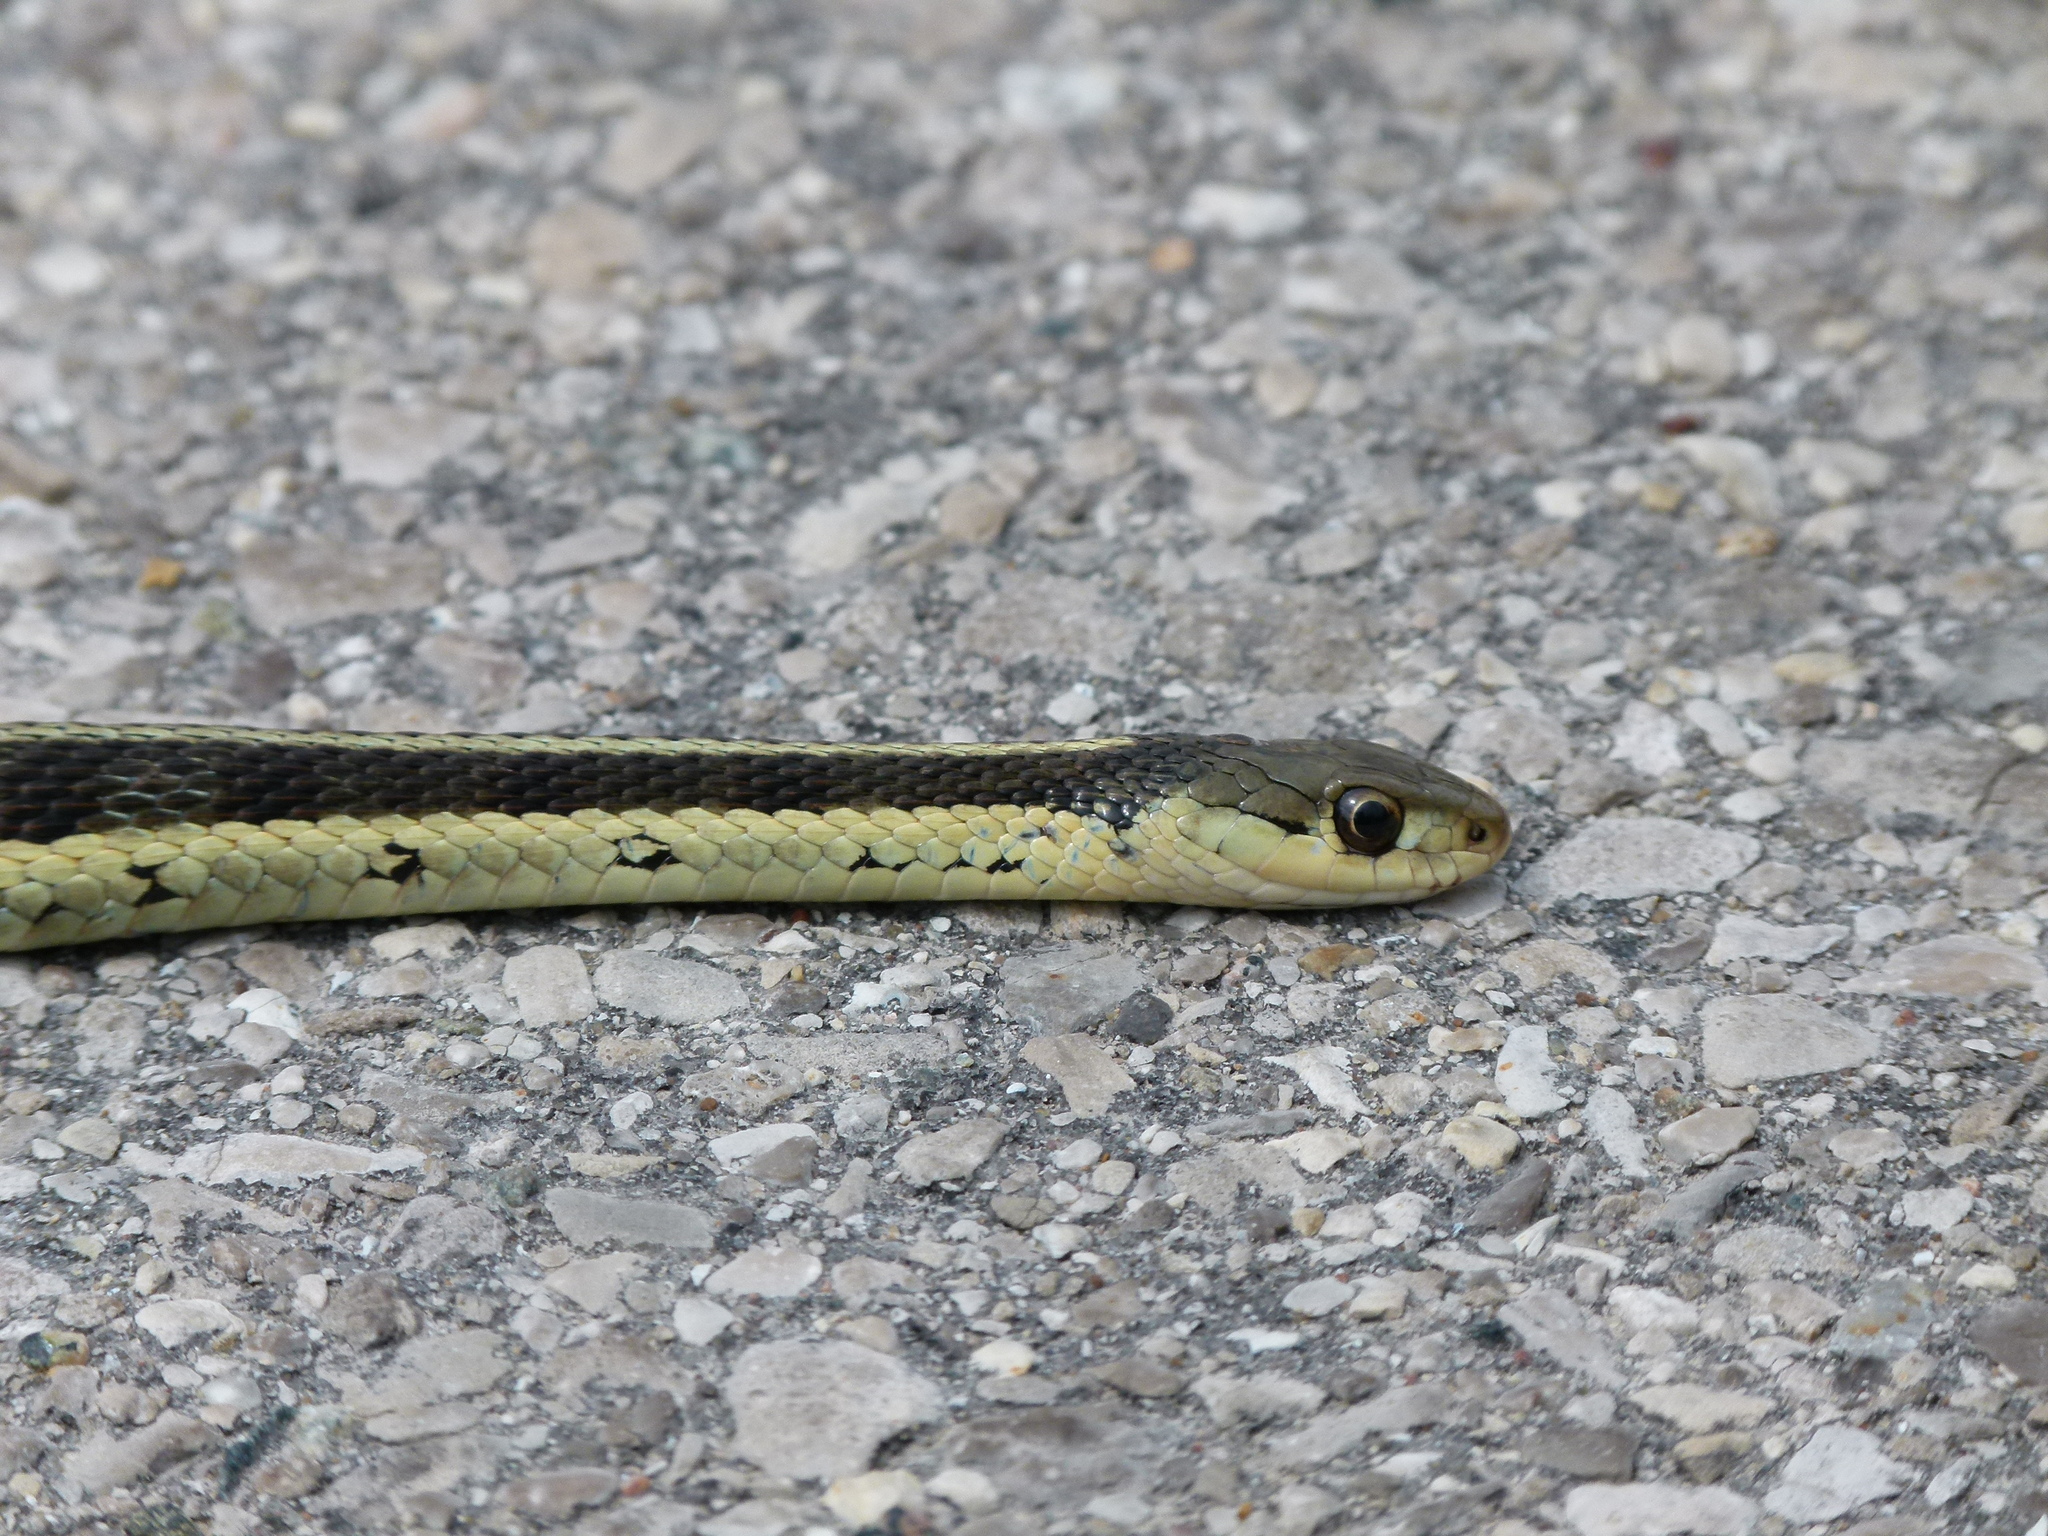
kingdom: Animalia
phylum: Chordata
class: Squamata
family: Colubridae
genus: Thamnophis
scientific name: Thamnophis sirtalis
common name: Common garter snake
